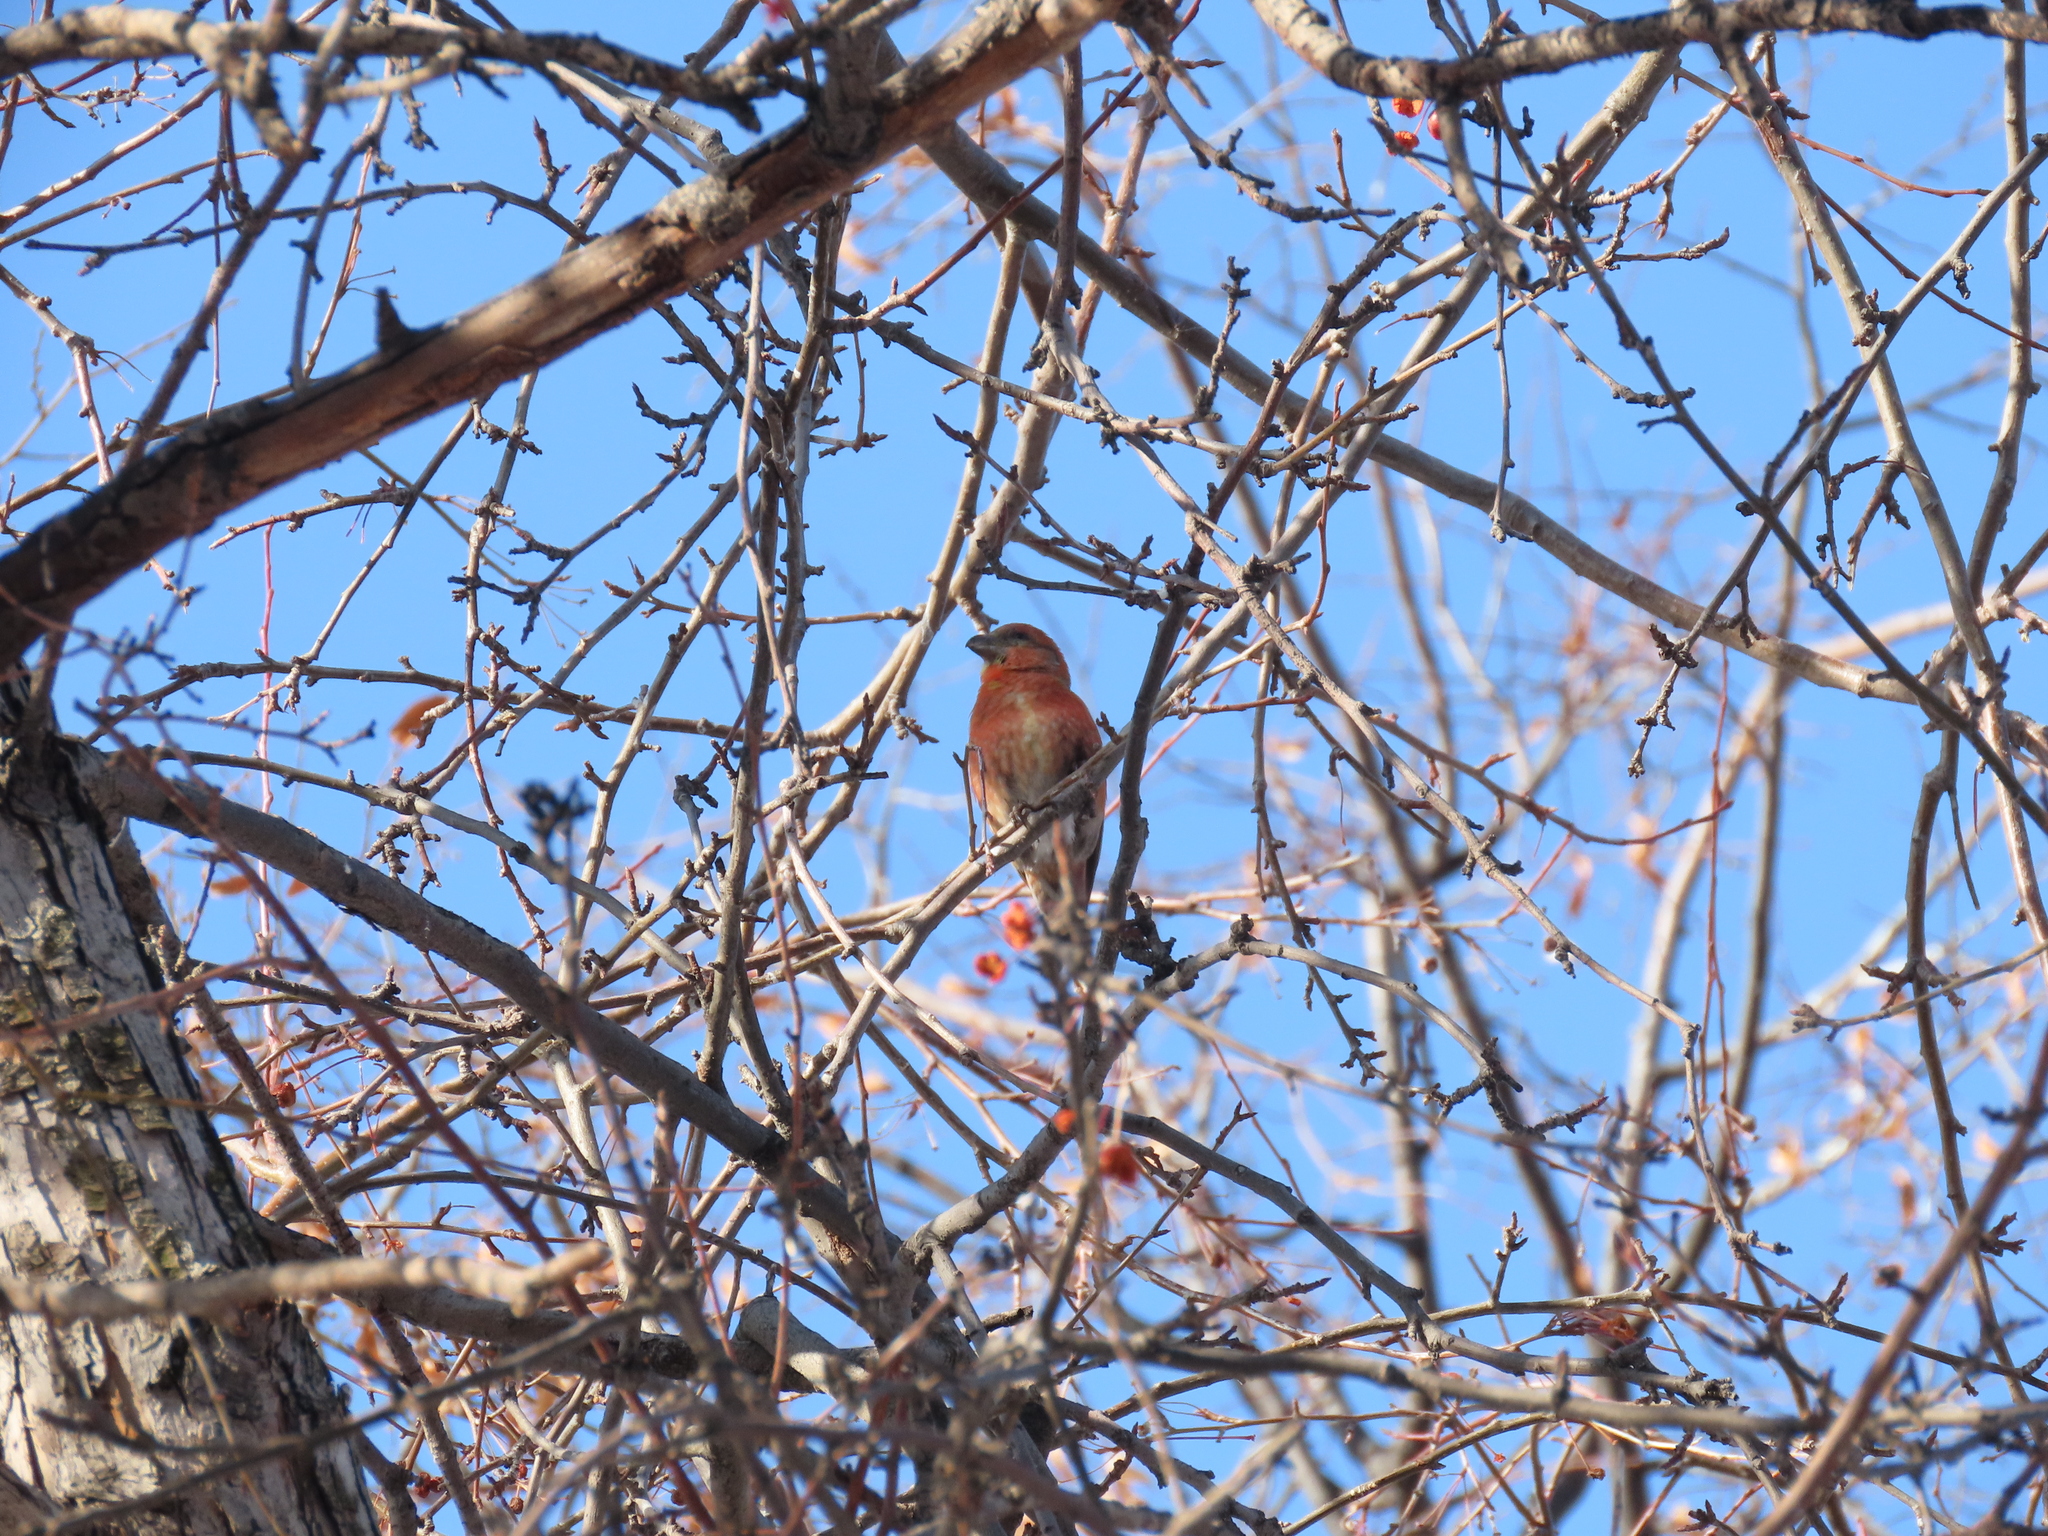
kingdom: Animalia
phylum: Chordata
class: Aves
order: Passeriformes
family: Fringillidae
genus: Loxia
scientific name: Loxia curvirostra
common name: Red crossbill
